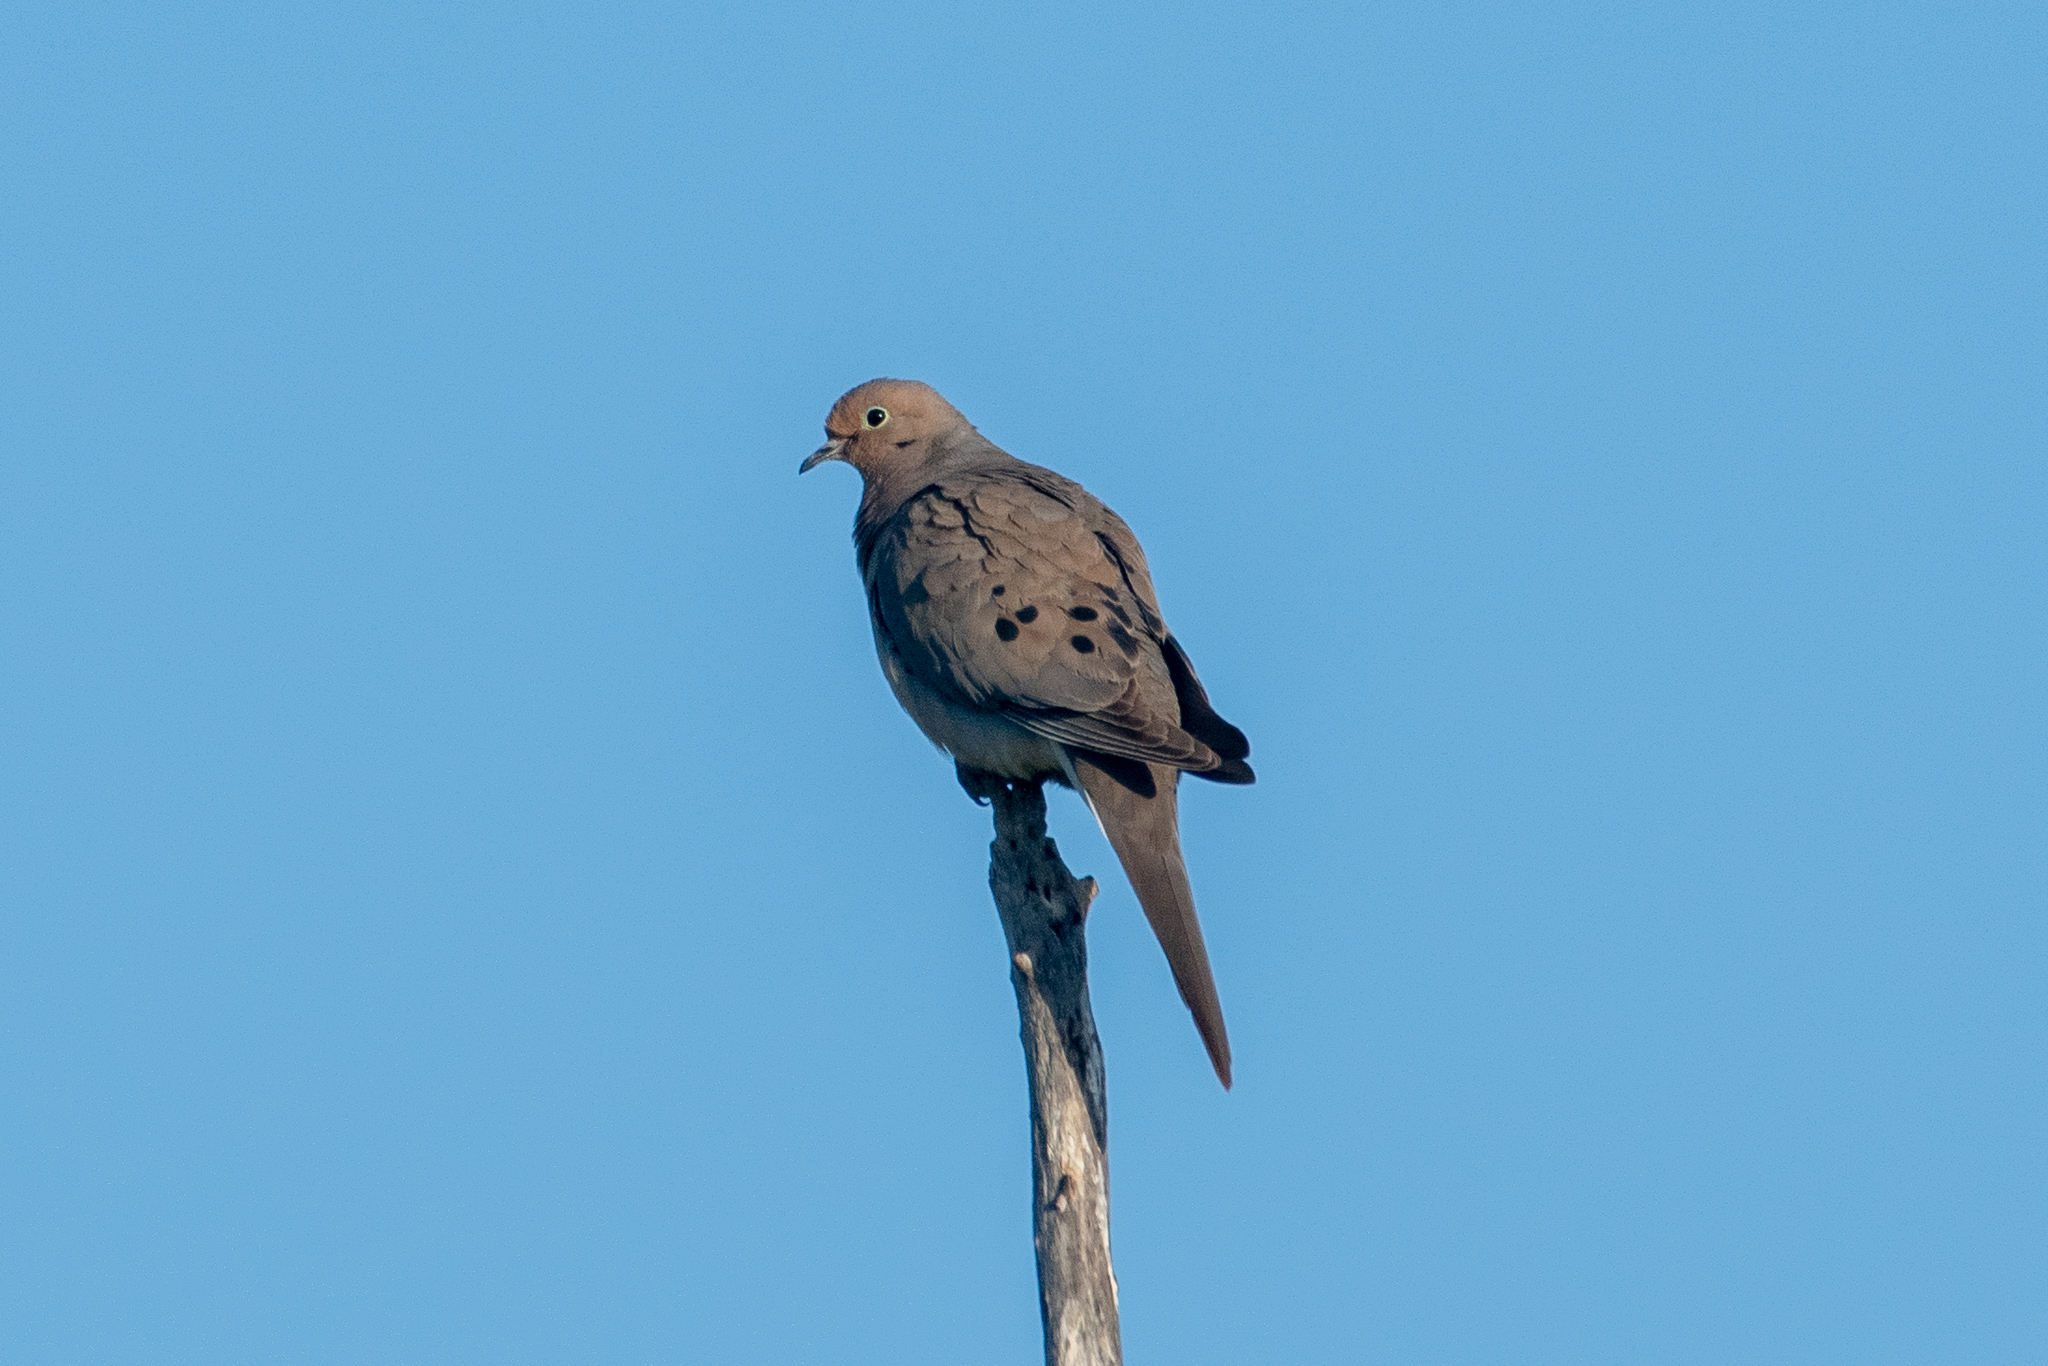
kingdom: Animalia
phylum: Chordata
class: Aves
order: Columbiformes
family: Columbidae
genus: Zenaida
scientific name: Zenaida macroura
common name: Mourning dove
